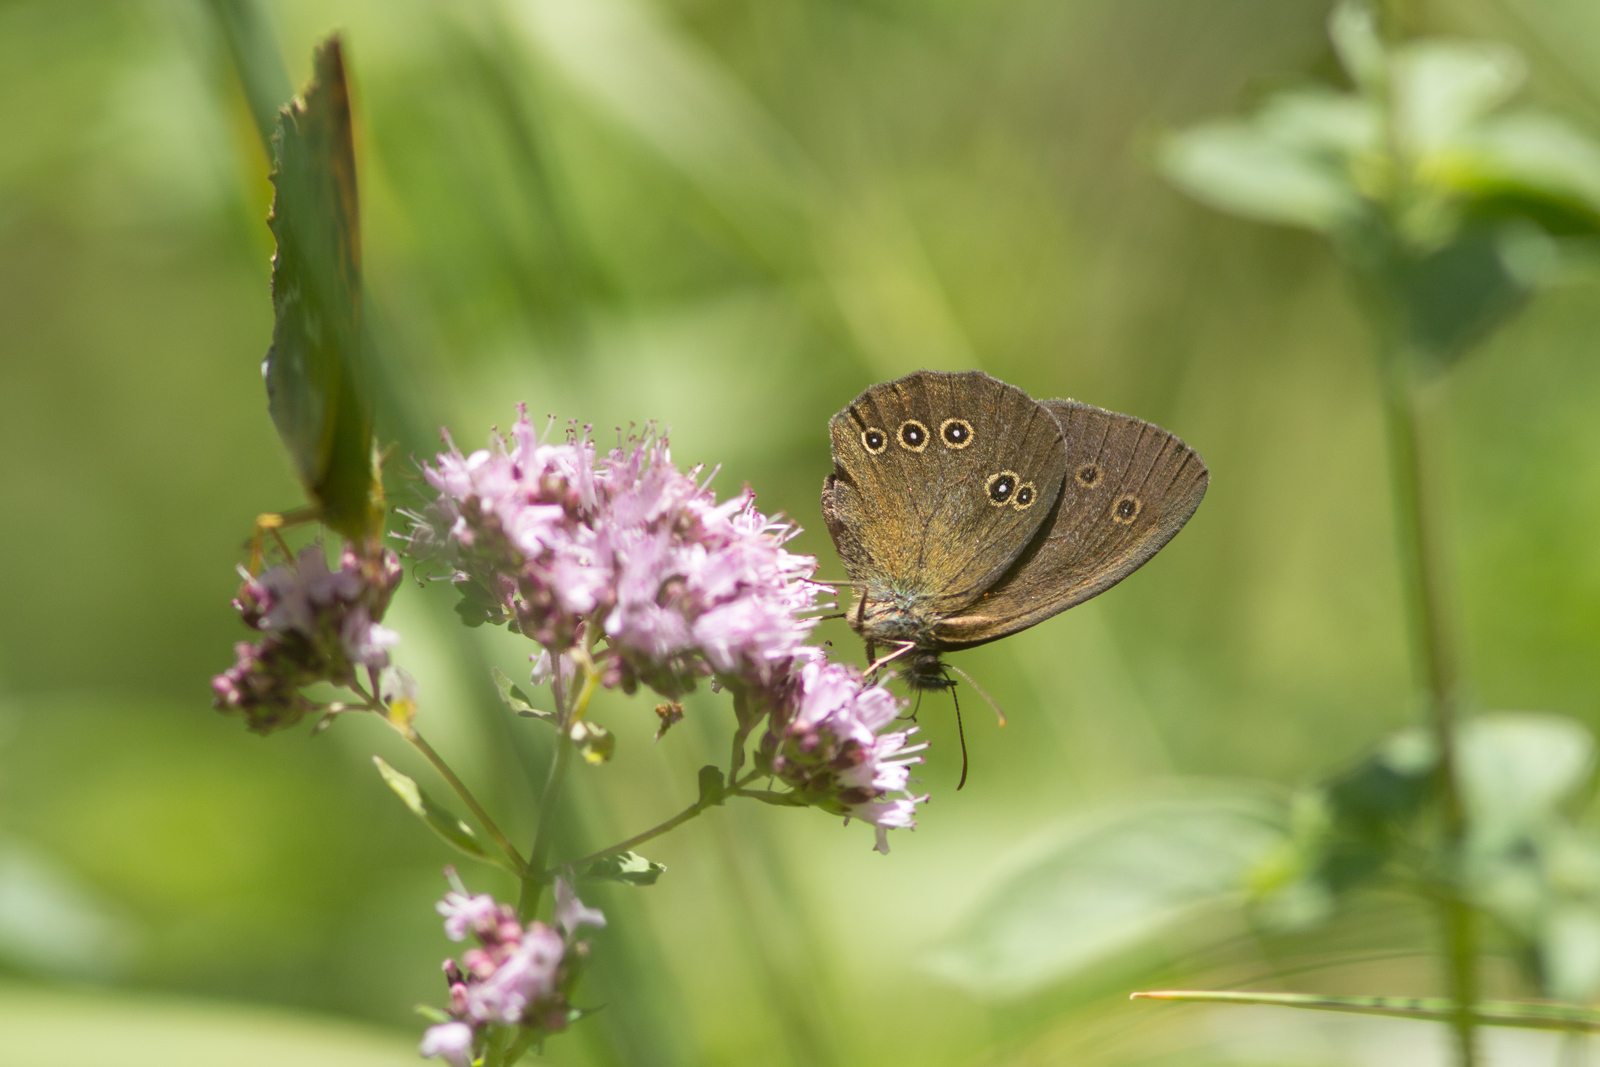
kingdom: Animalia
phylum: Arthropoda
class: Insecta
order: Lepidoptera
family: Nymphalidae
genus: Aphantopus
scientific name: Aphantopus hyperantus
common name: Ringlet
